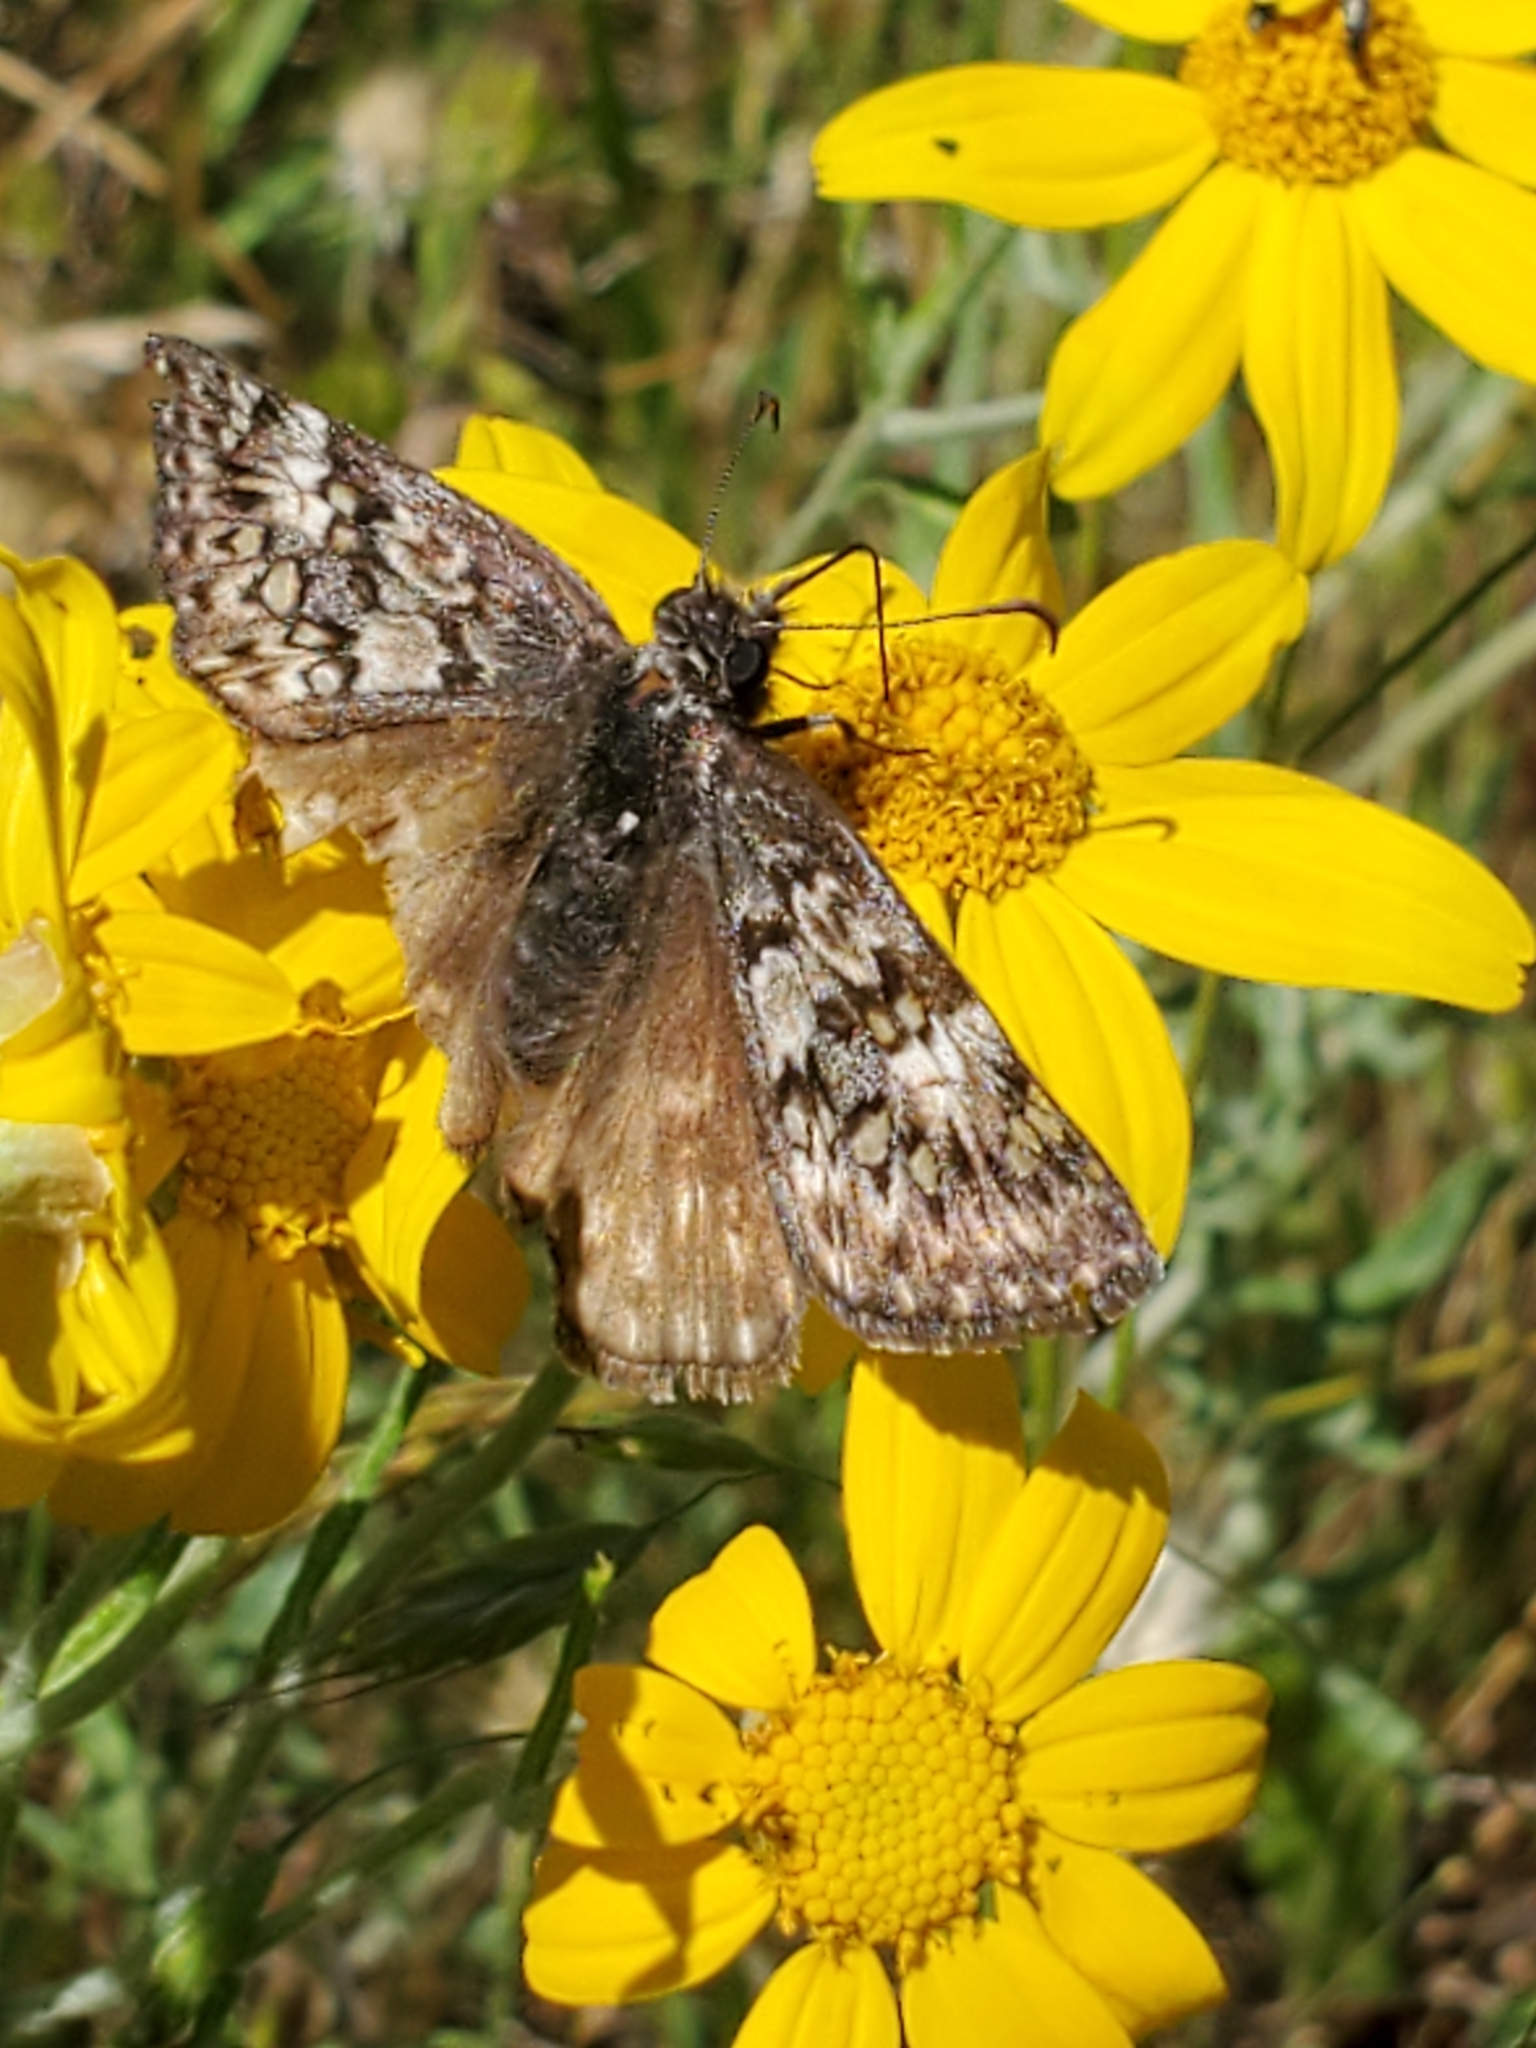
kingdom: Animalia
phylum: Arthropoda
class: Insecta
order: Lepidoptera
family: Hesperiidae
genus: Erynnis
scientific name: Erynnis propertius
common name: Propertius duskywing
